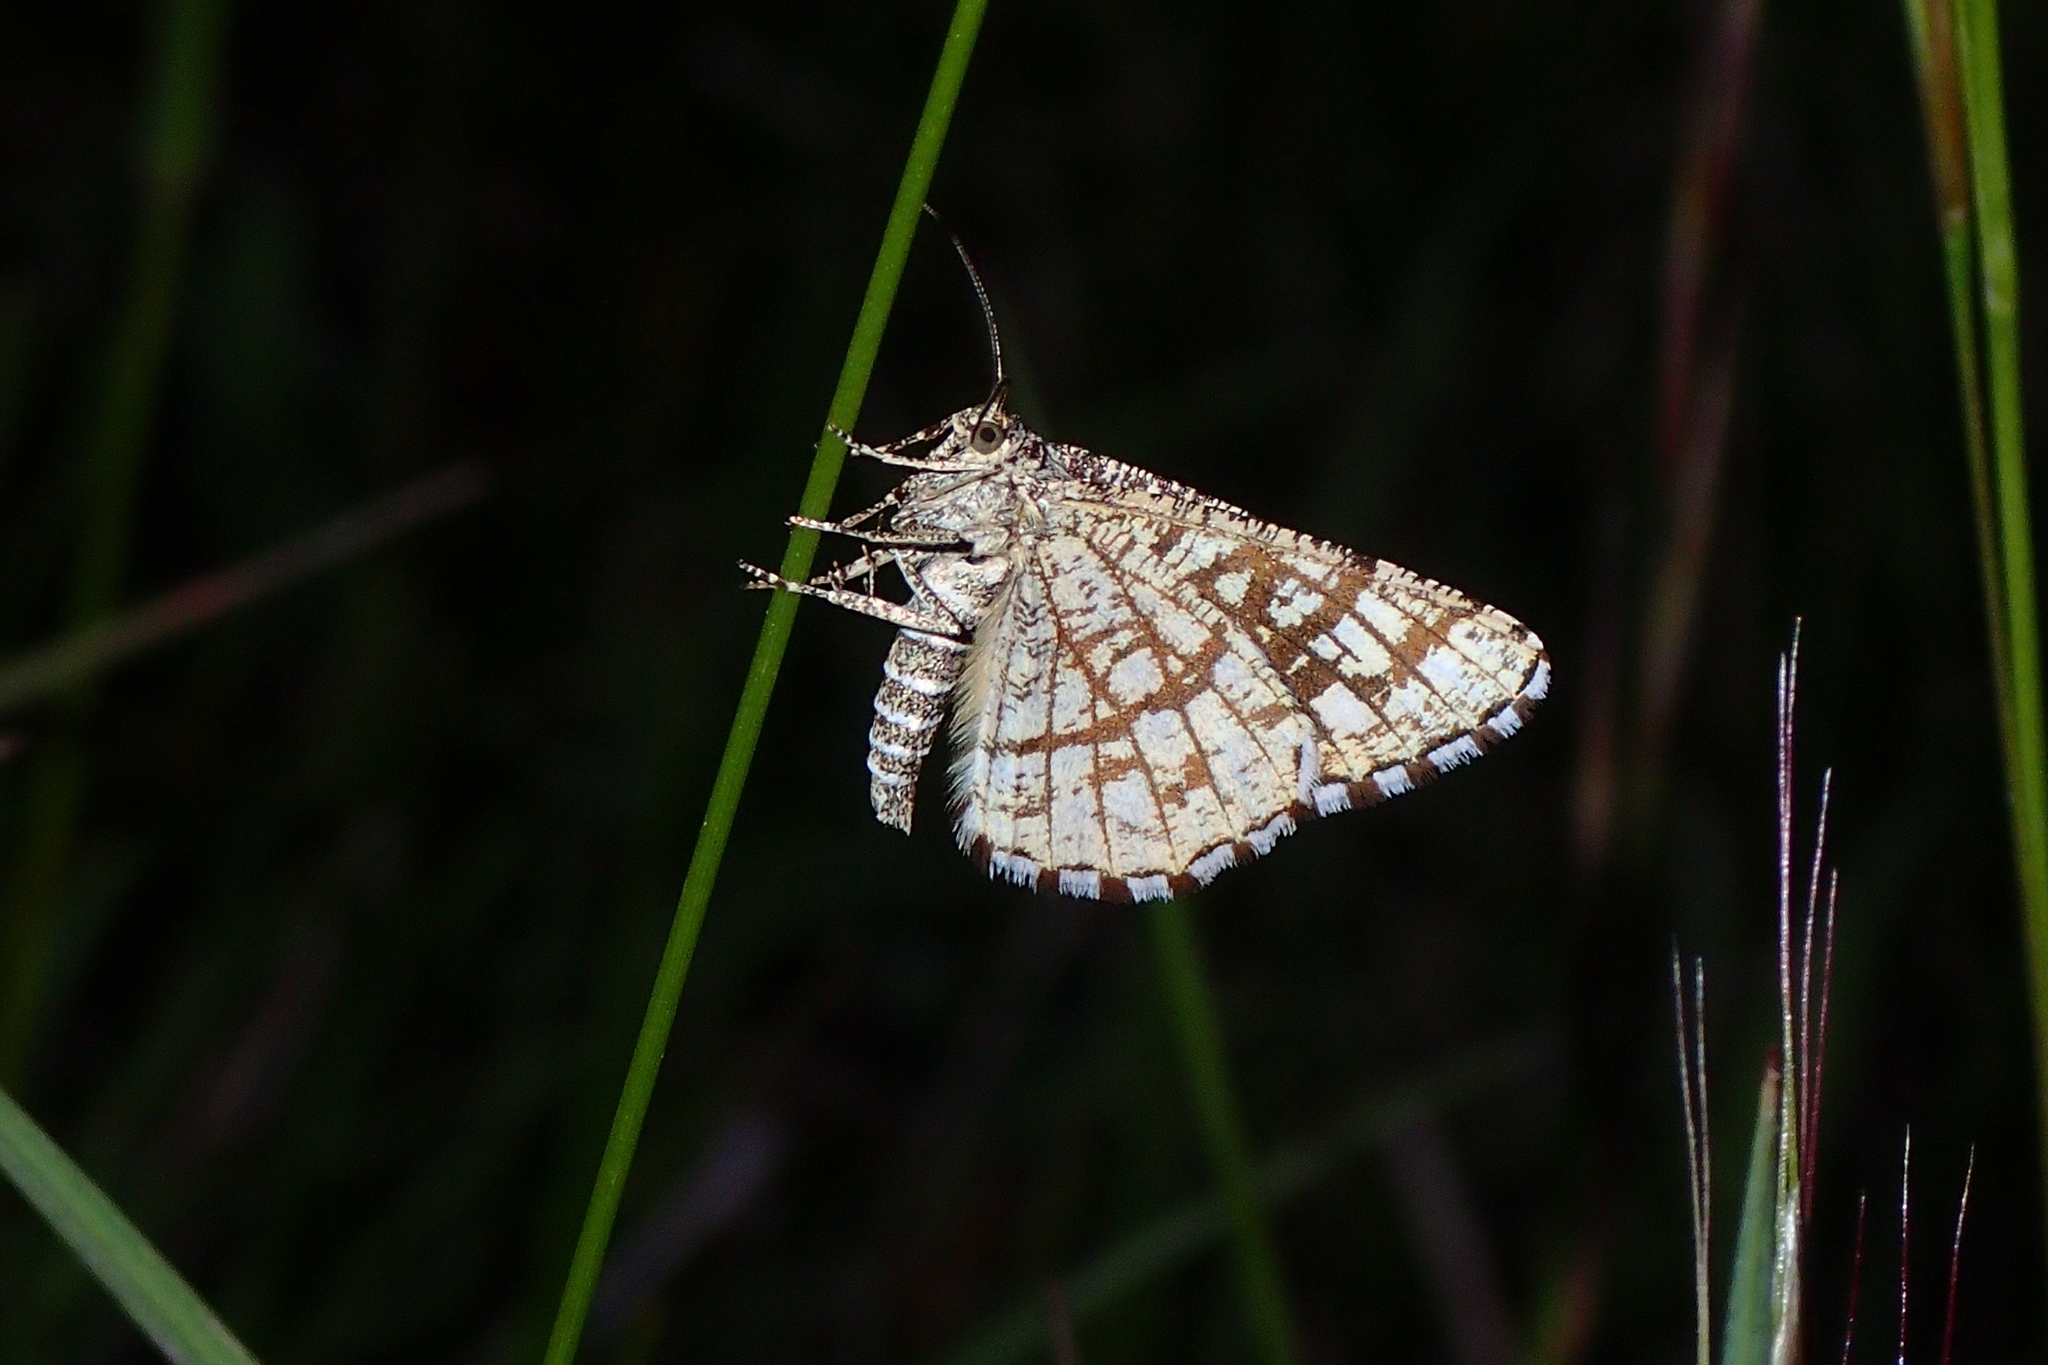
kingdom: Animalia
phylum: Arthropoda
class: Insecta
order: Lepidoptera
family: Geometridae
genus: Chiasmia
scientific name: Chiasmia clathrata
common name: Latticed heath
